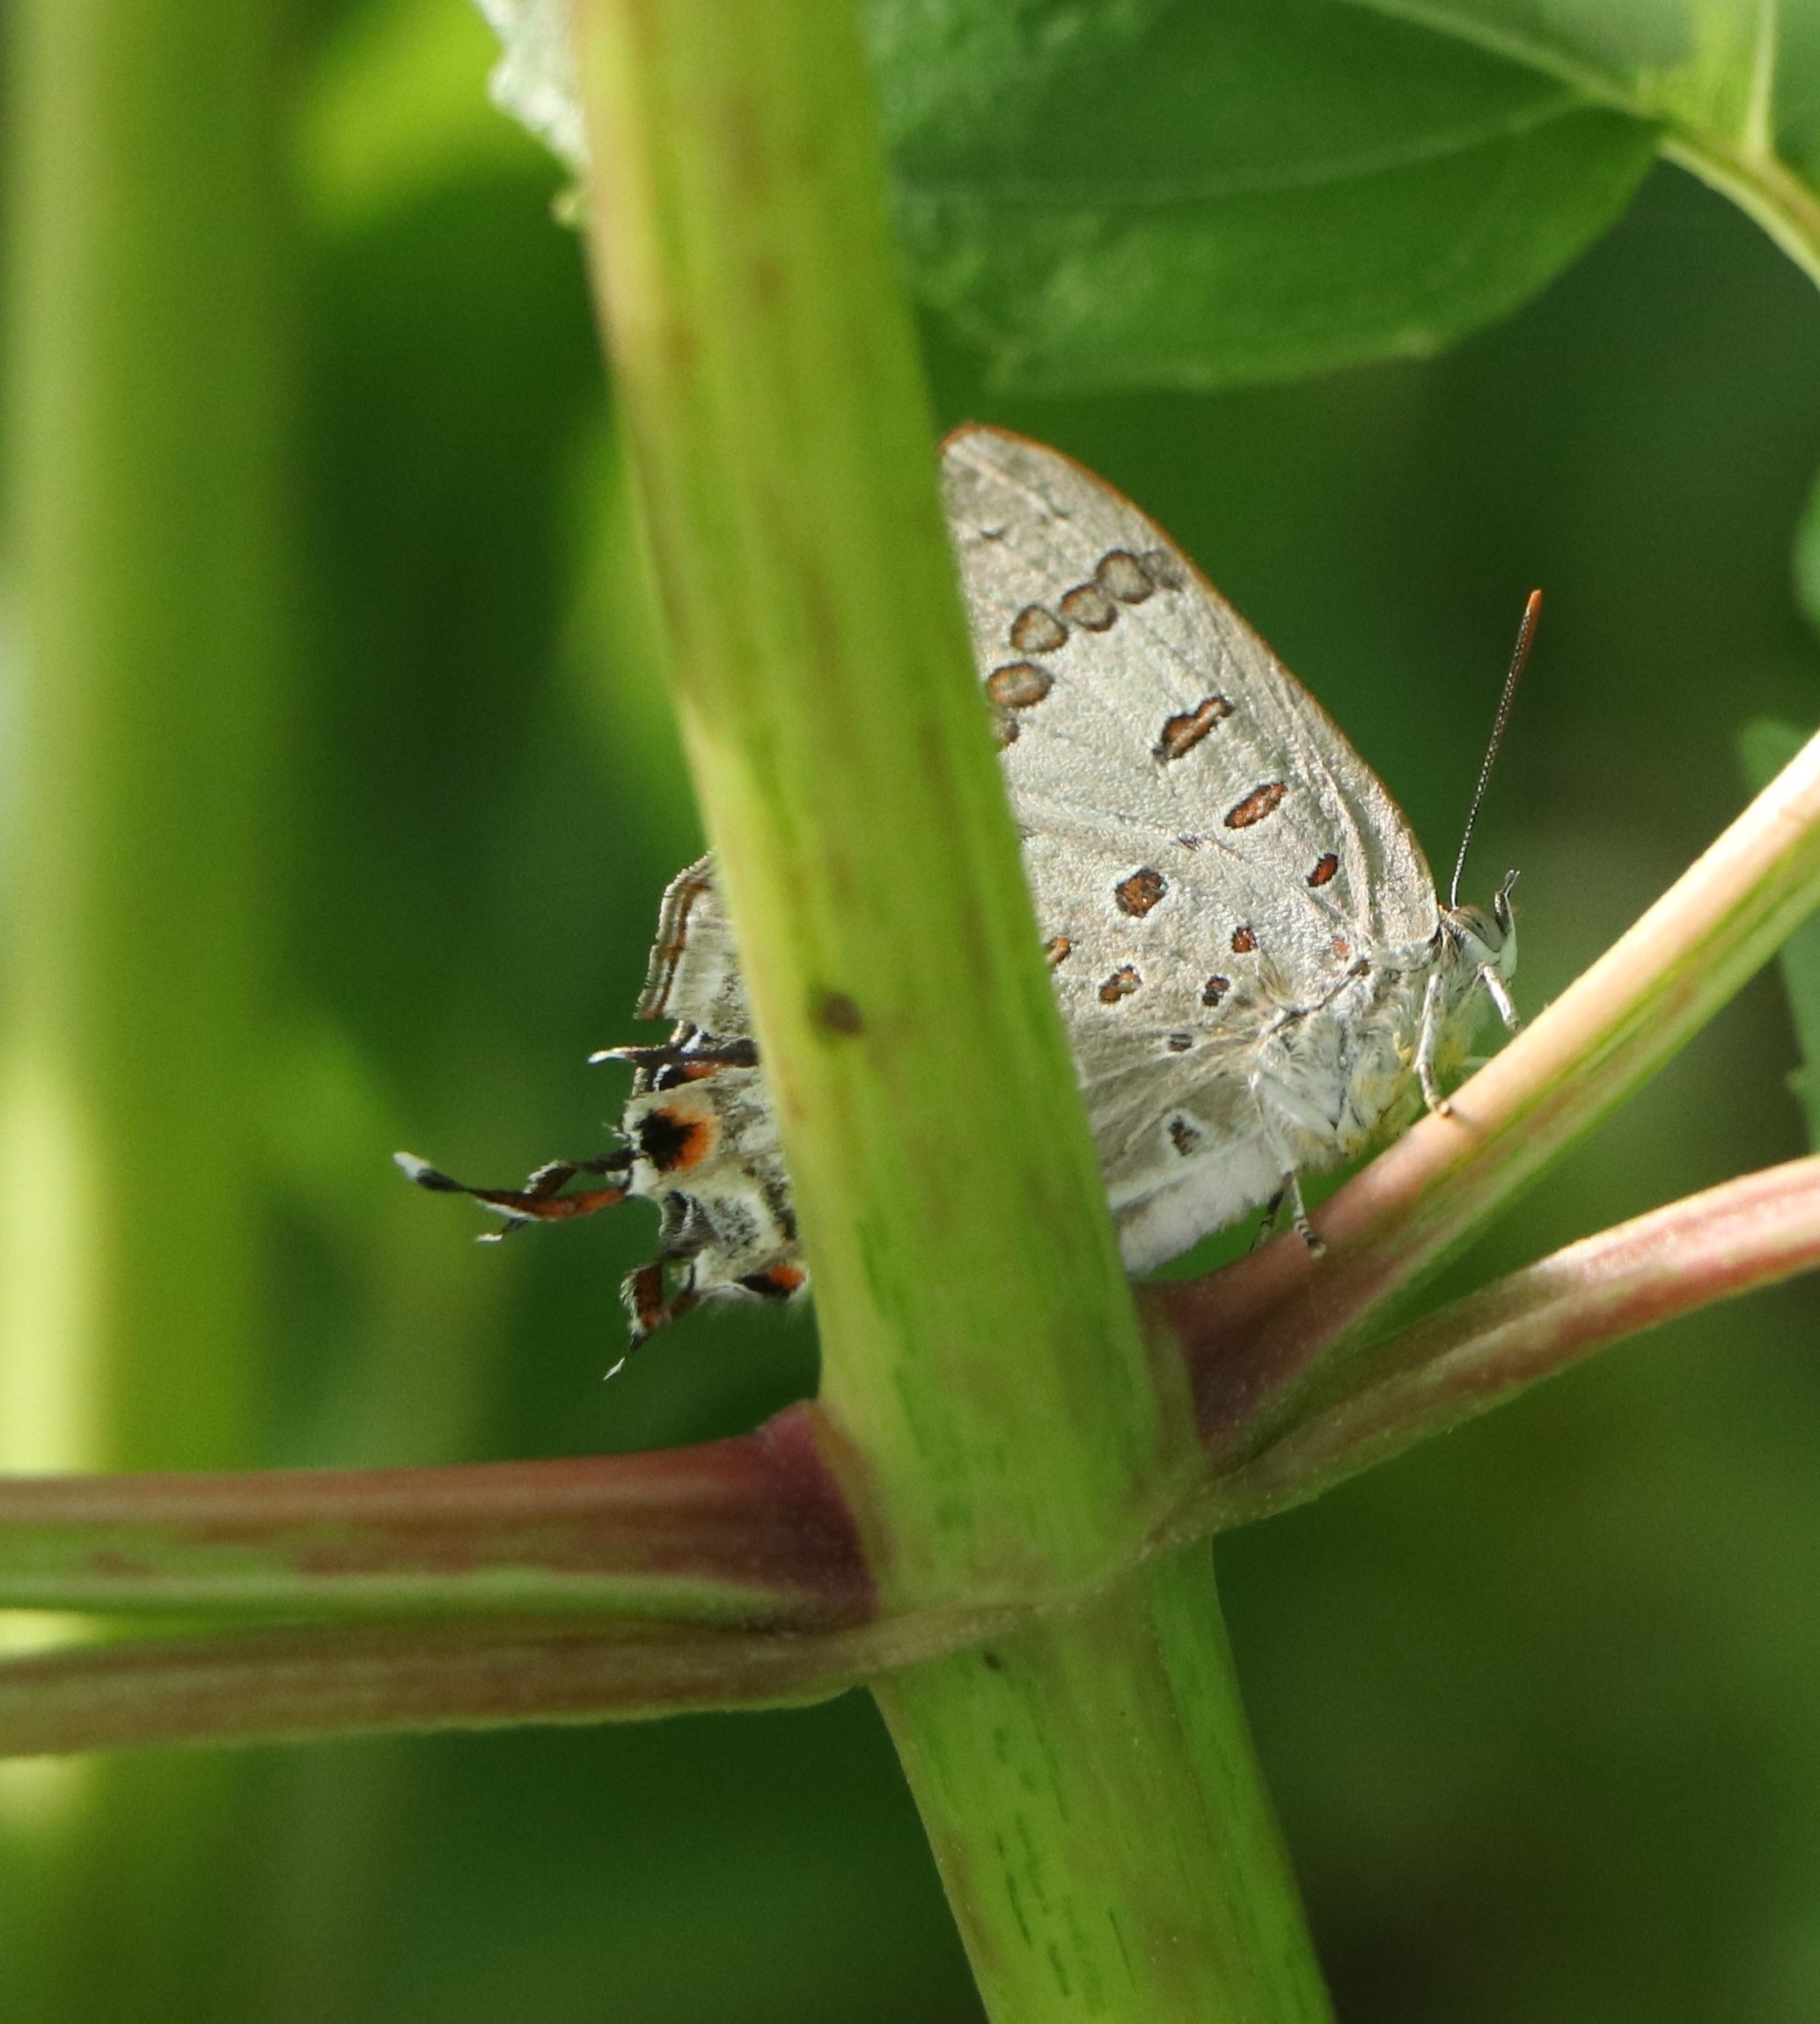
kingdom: Animalia
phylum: Arthropoda
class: Insecta
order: Lepidoptera
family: Lycaenidae
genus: Zesius
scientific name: Zesius chrysomallus
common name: Redspot
